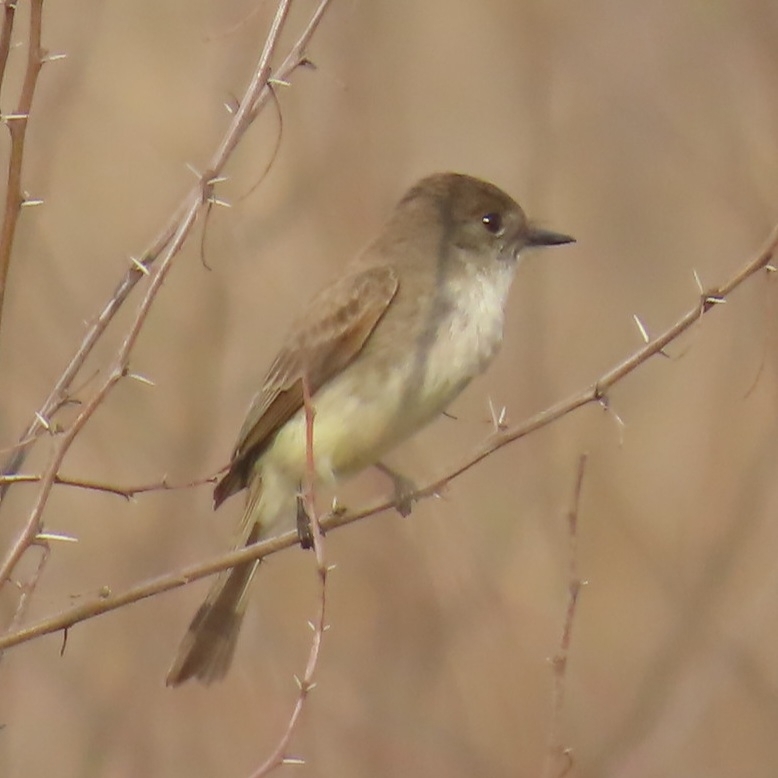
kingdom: Animalia
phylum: Chordata
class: Aves
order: Passeriformes
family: Tyrannidae
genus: Sayornis
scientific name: Sayornis phoebe
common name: Eastern phoebe
